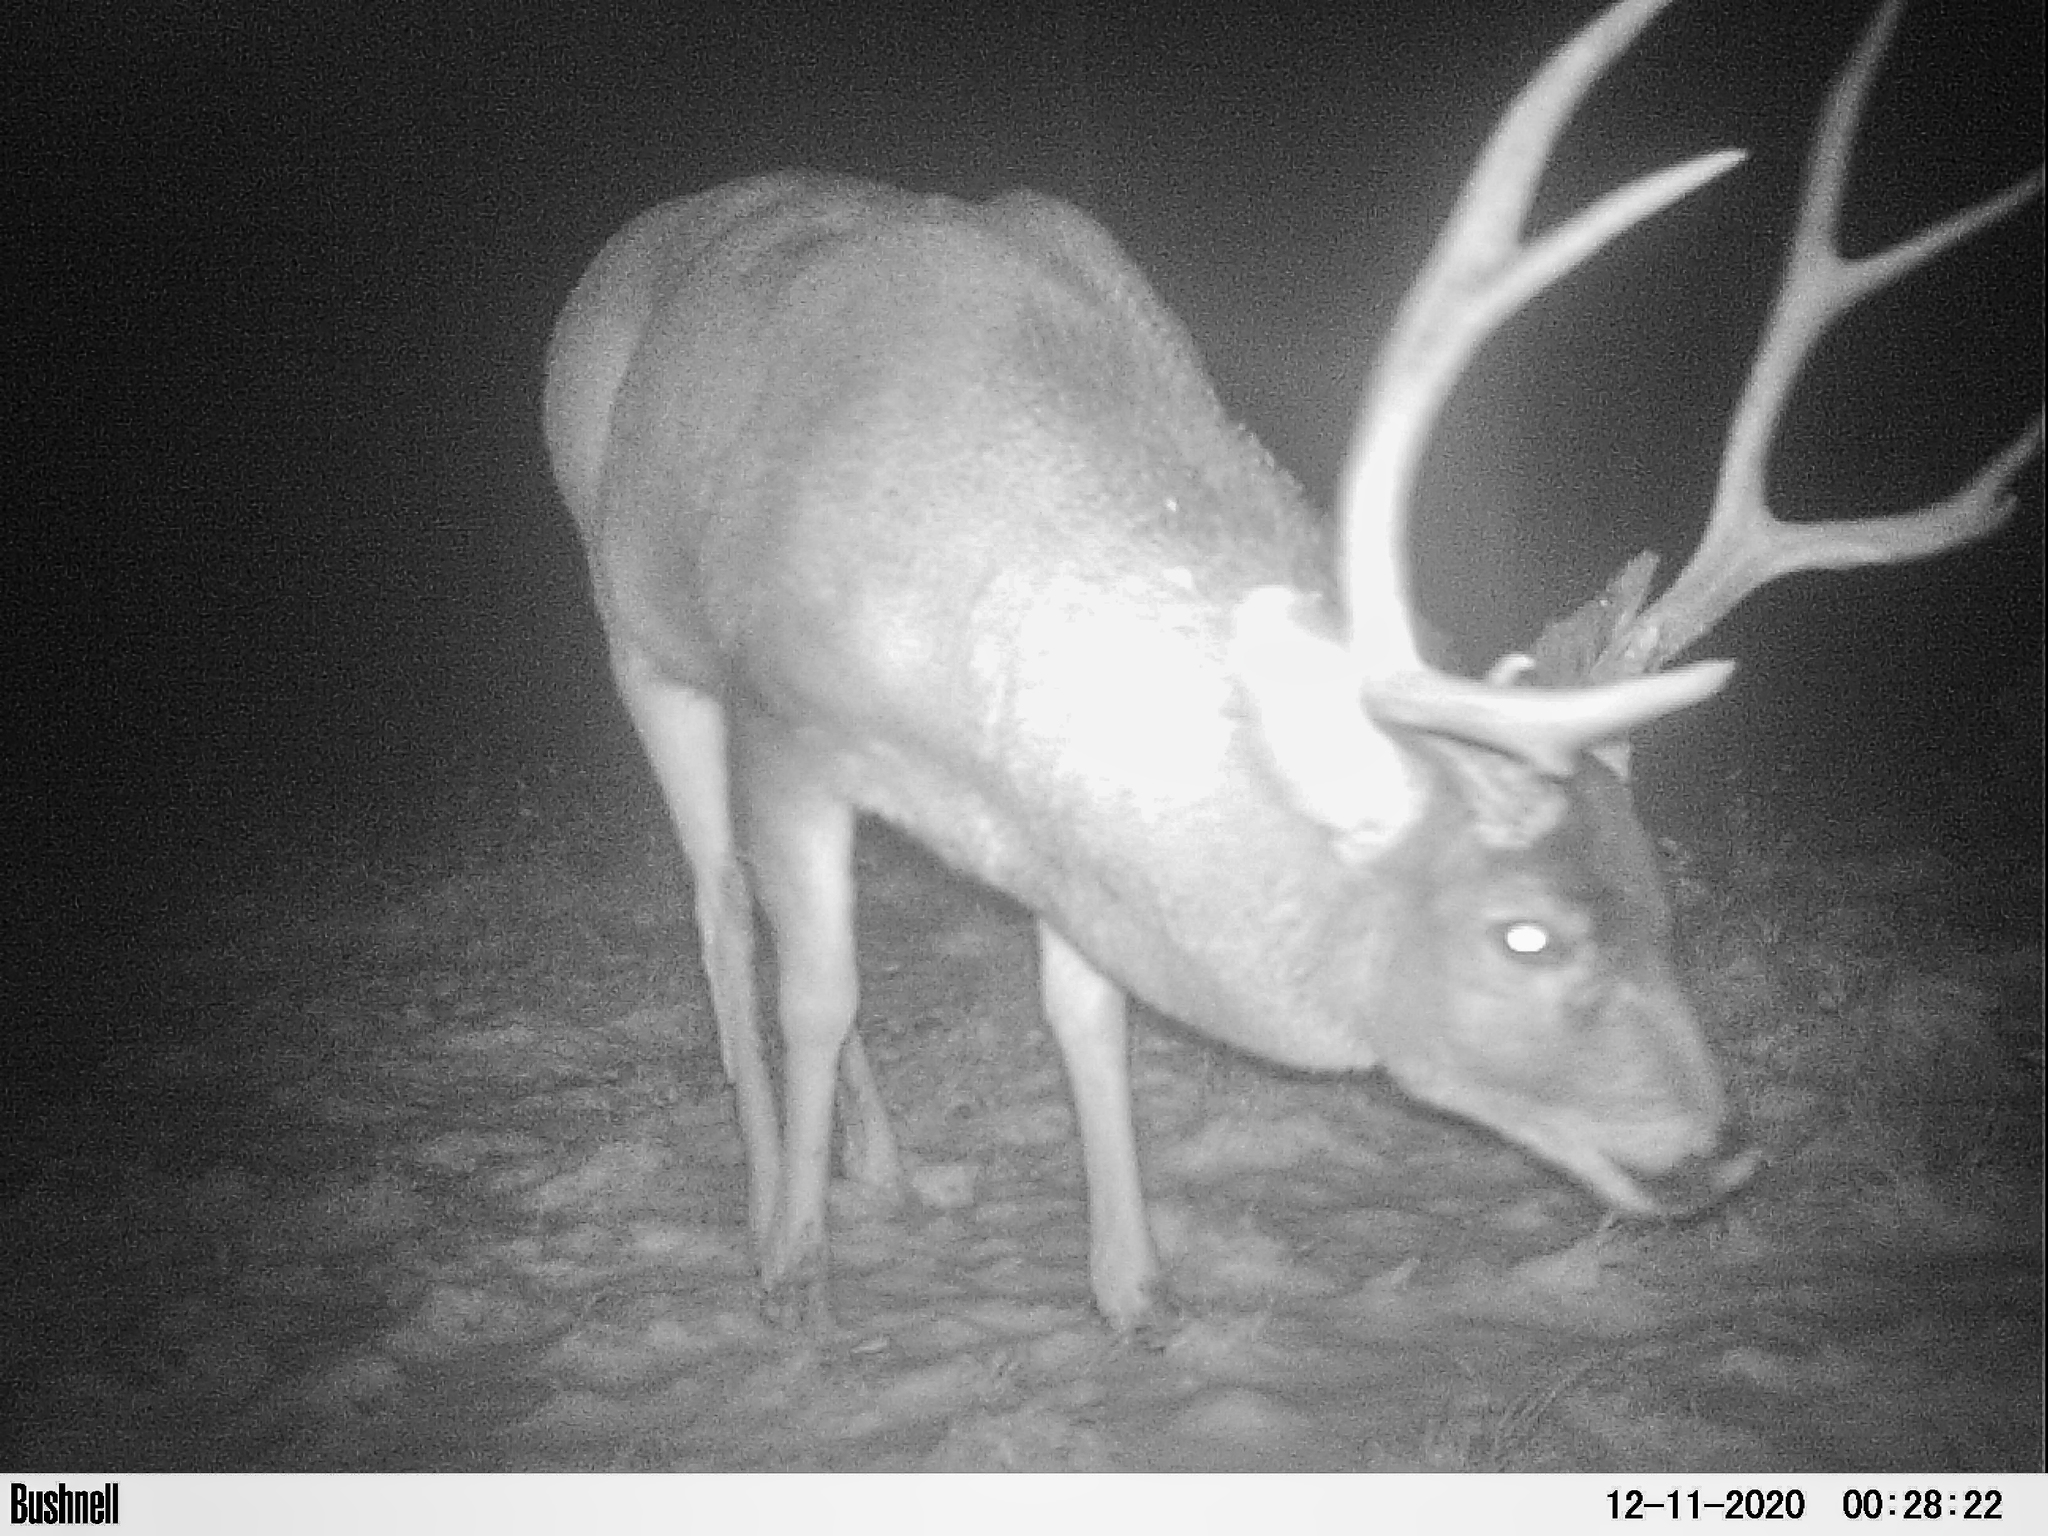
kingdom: Animalia
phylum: Chordata
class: Mammalia
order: Artiodactyla
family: Cervidae
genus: Odocoileus
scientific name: Odocoileus hemionus
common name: Mule deer
